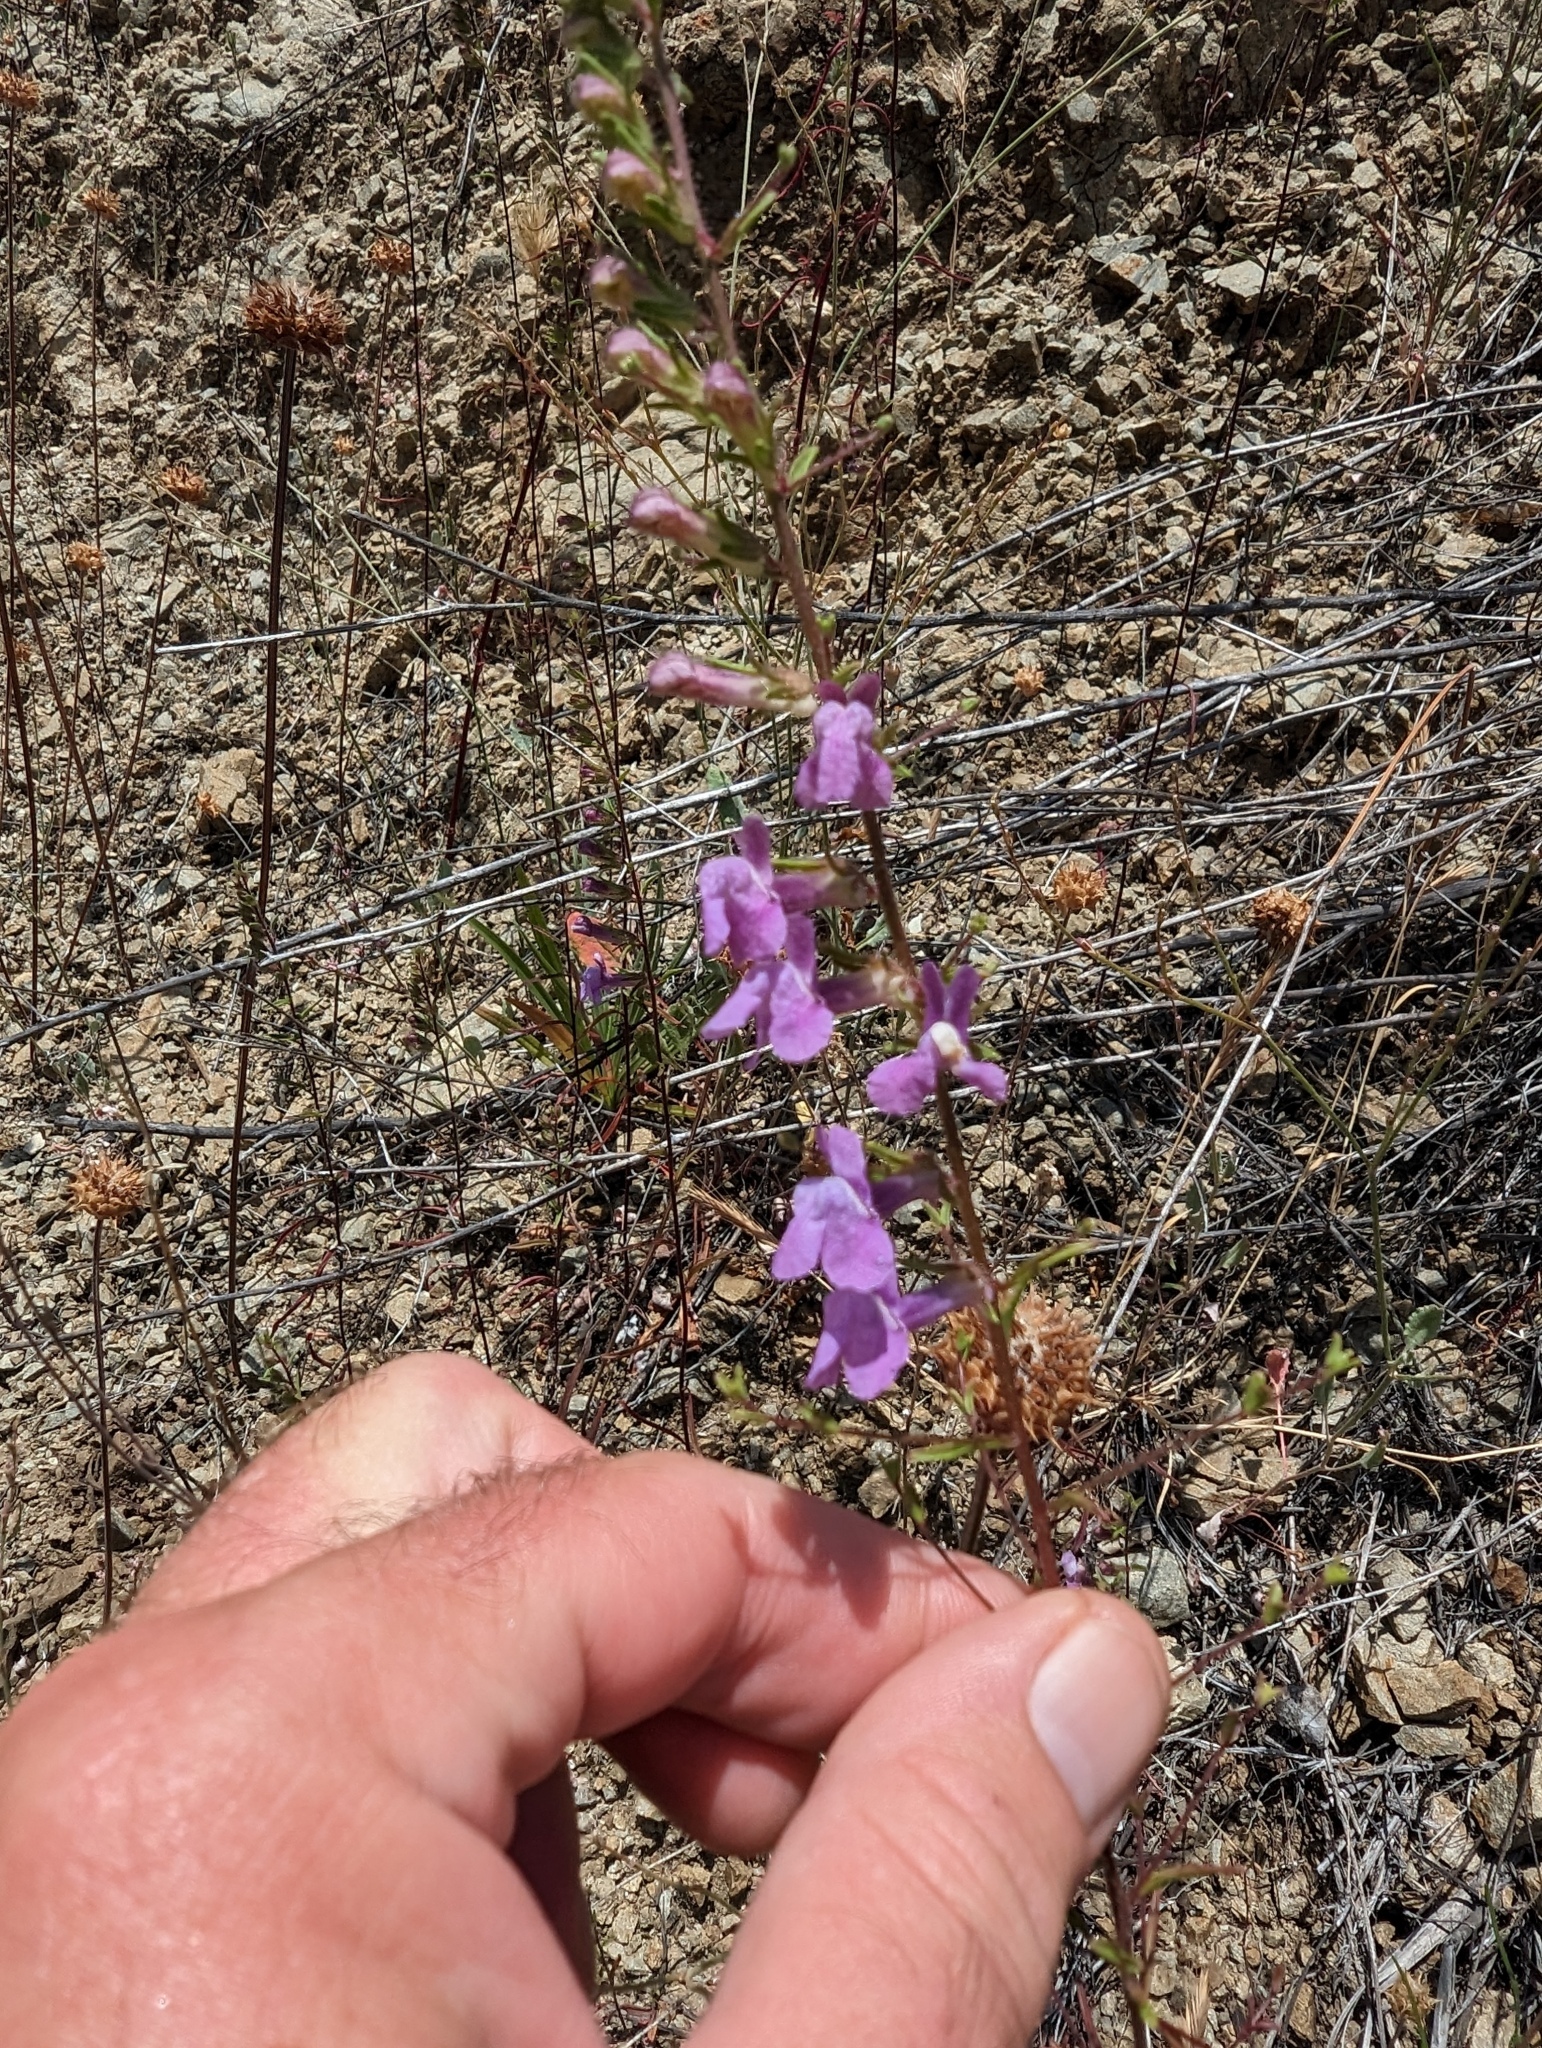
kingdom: Plantae
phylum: Tracheophyta
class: Magnoliopsida
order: Lamiales
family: Plantaginaceae
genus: Sairocarpus
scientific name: Sairocarpus vexillocalyculatus
